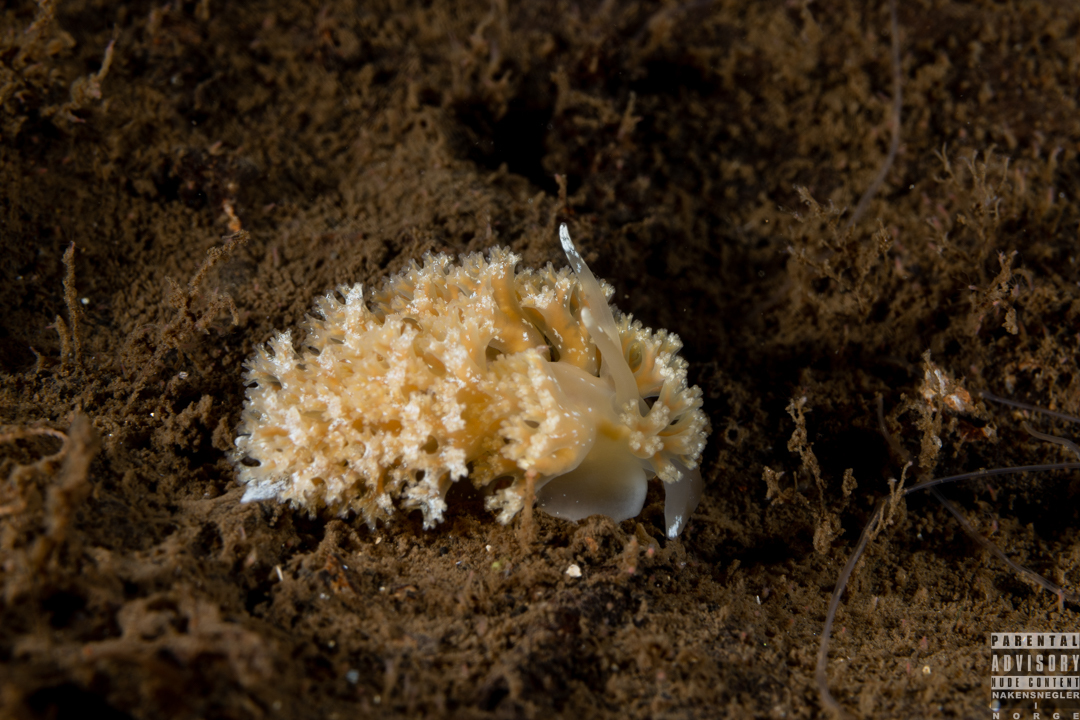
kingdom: Animalia
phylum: Mollusca
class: Gastropoda
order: Nudibranchia
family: Heroidae
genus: Hero
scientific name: Hero formosa
